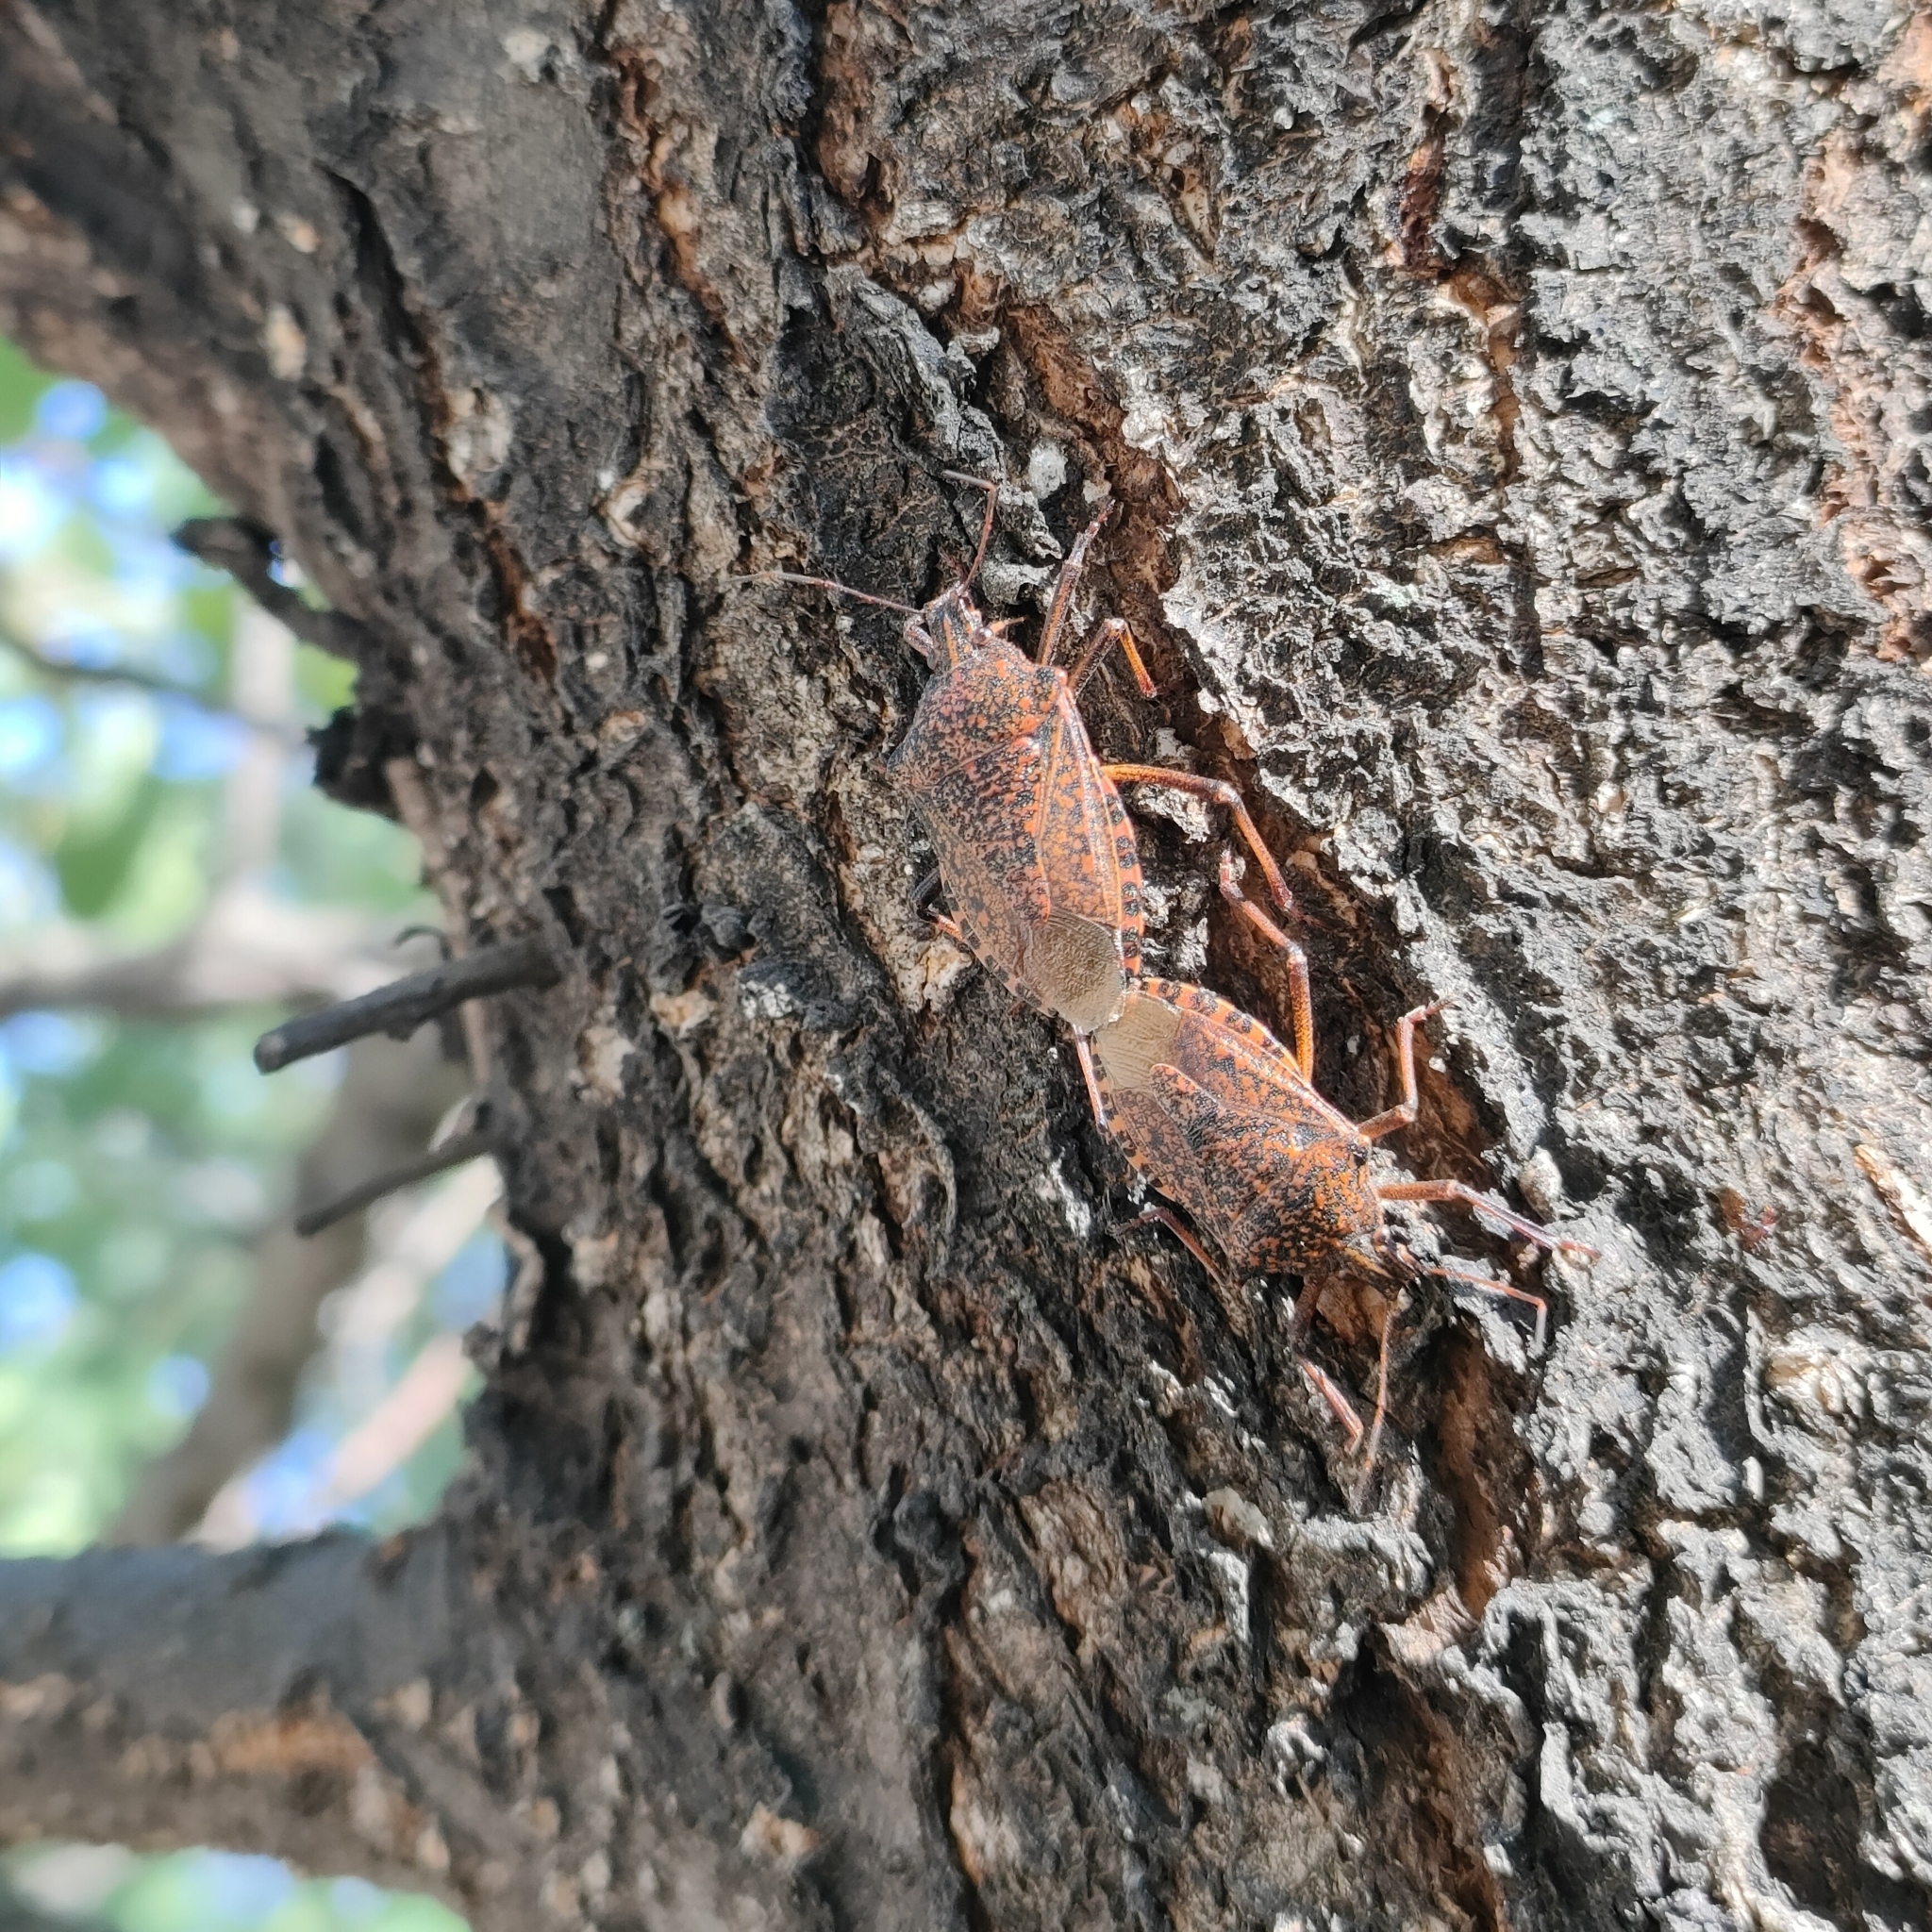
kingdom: Animalia
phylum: Arthropoda
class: Insecta
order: Hemiptera
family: Pentatomidae
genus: Apodiphus
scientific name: Apodiphus amygdali
